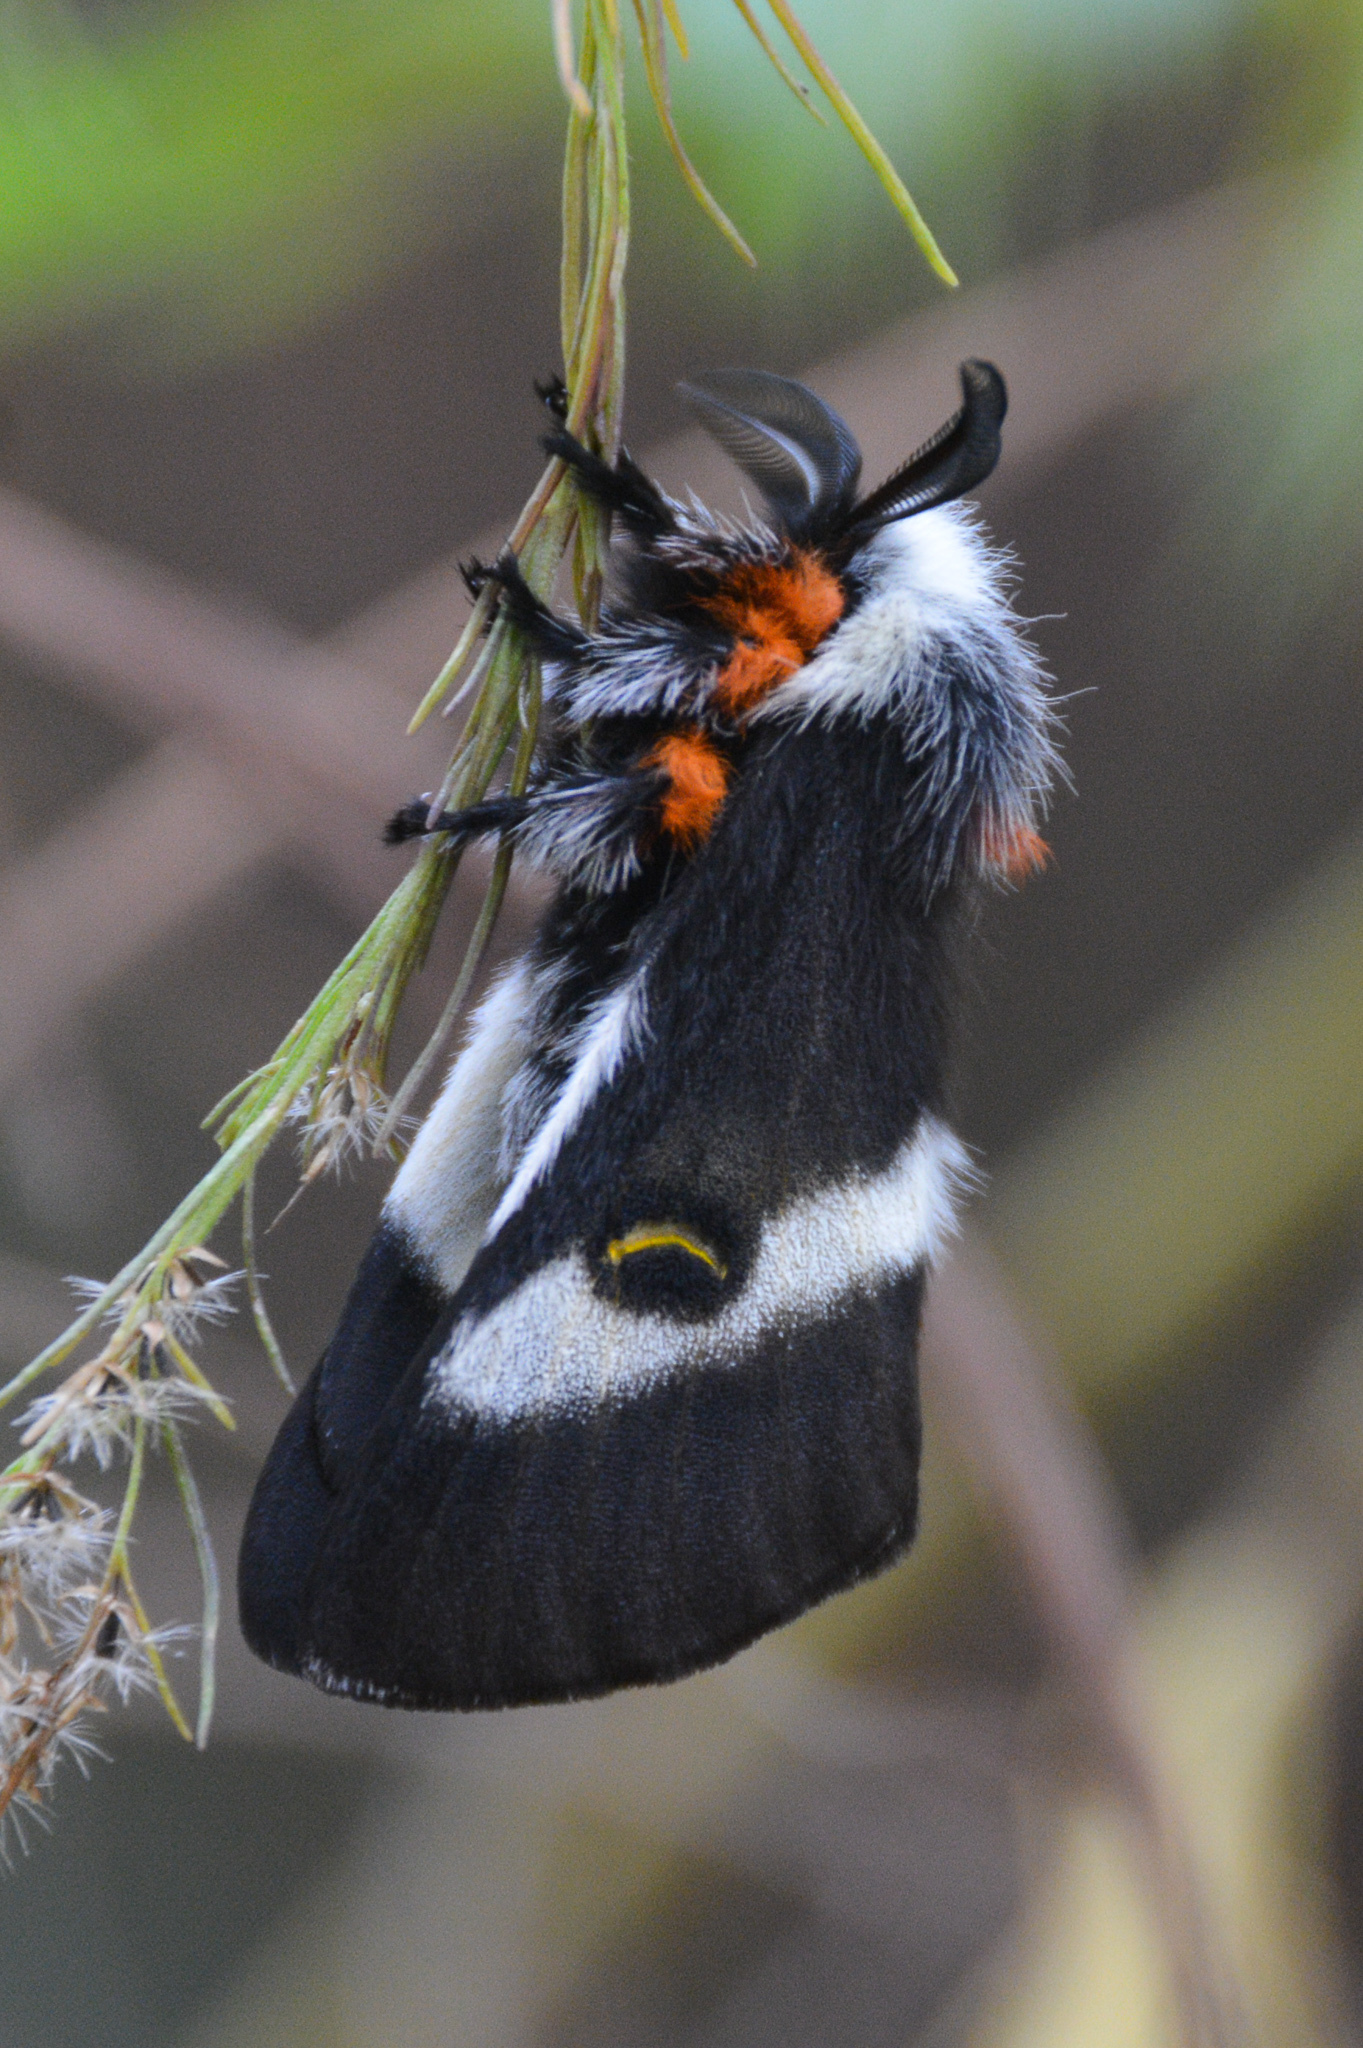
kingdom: Animalia
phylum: Arthropoda
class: Insecta
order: Lepidoptera
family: Saturniidae
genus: Hemileuca
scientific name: Hemileuca maia
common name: Eastern buckmoth
